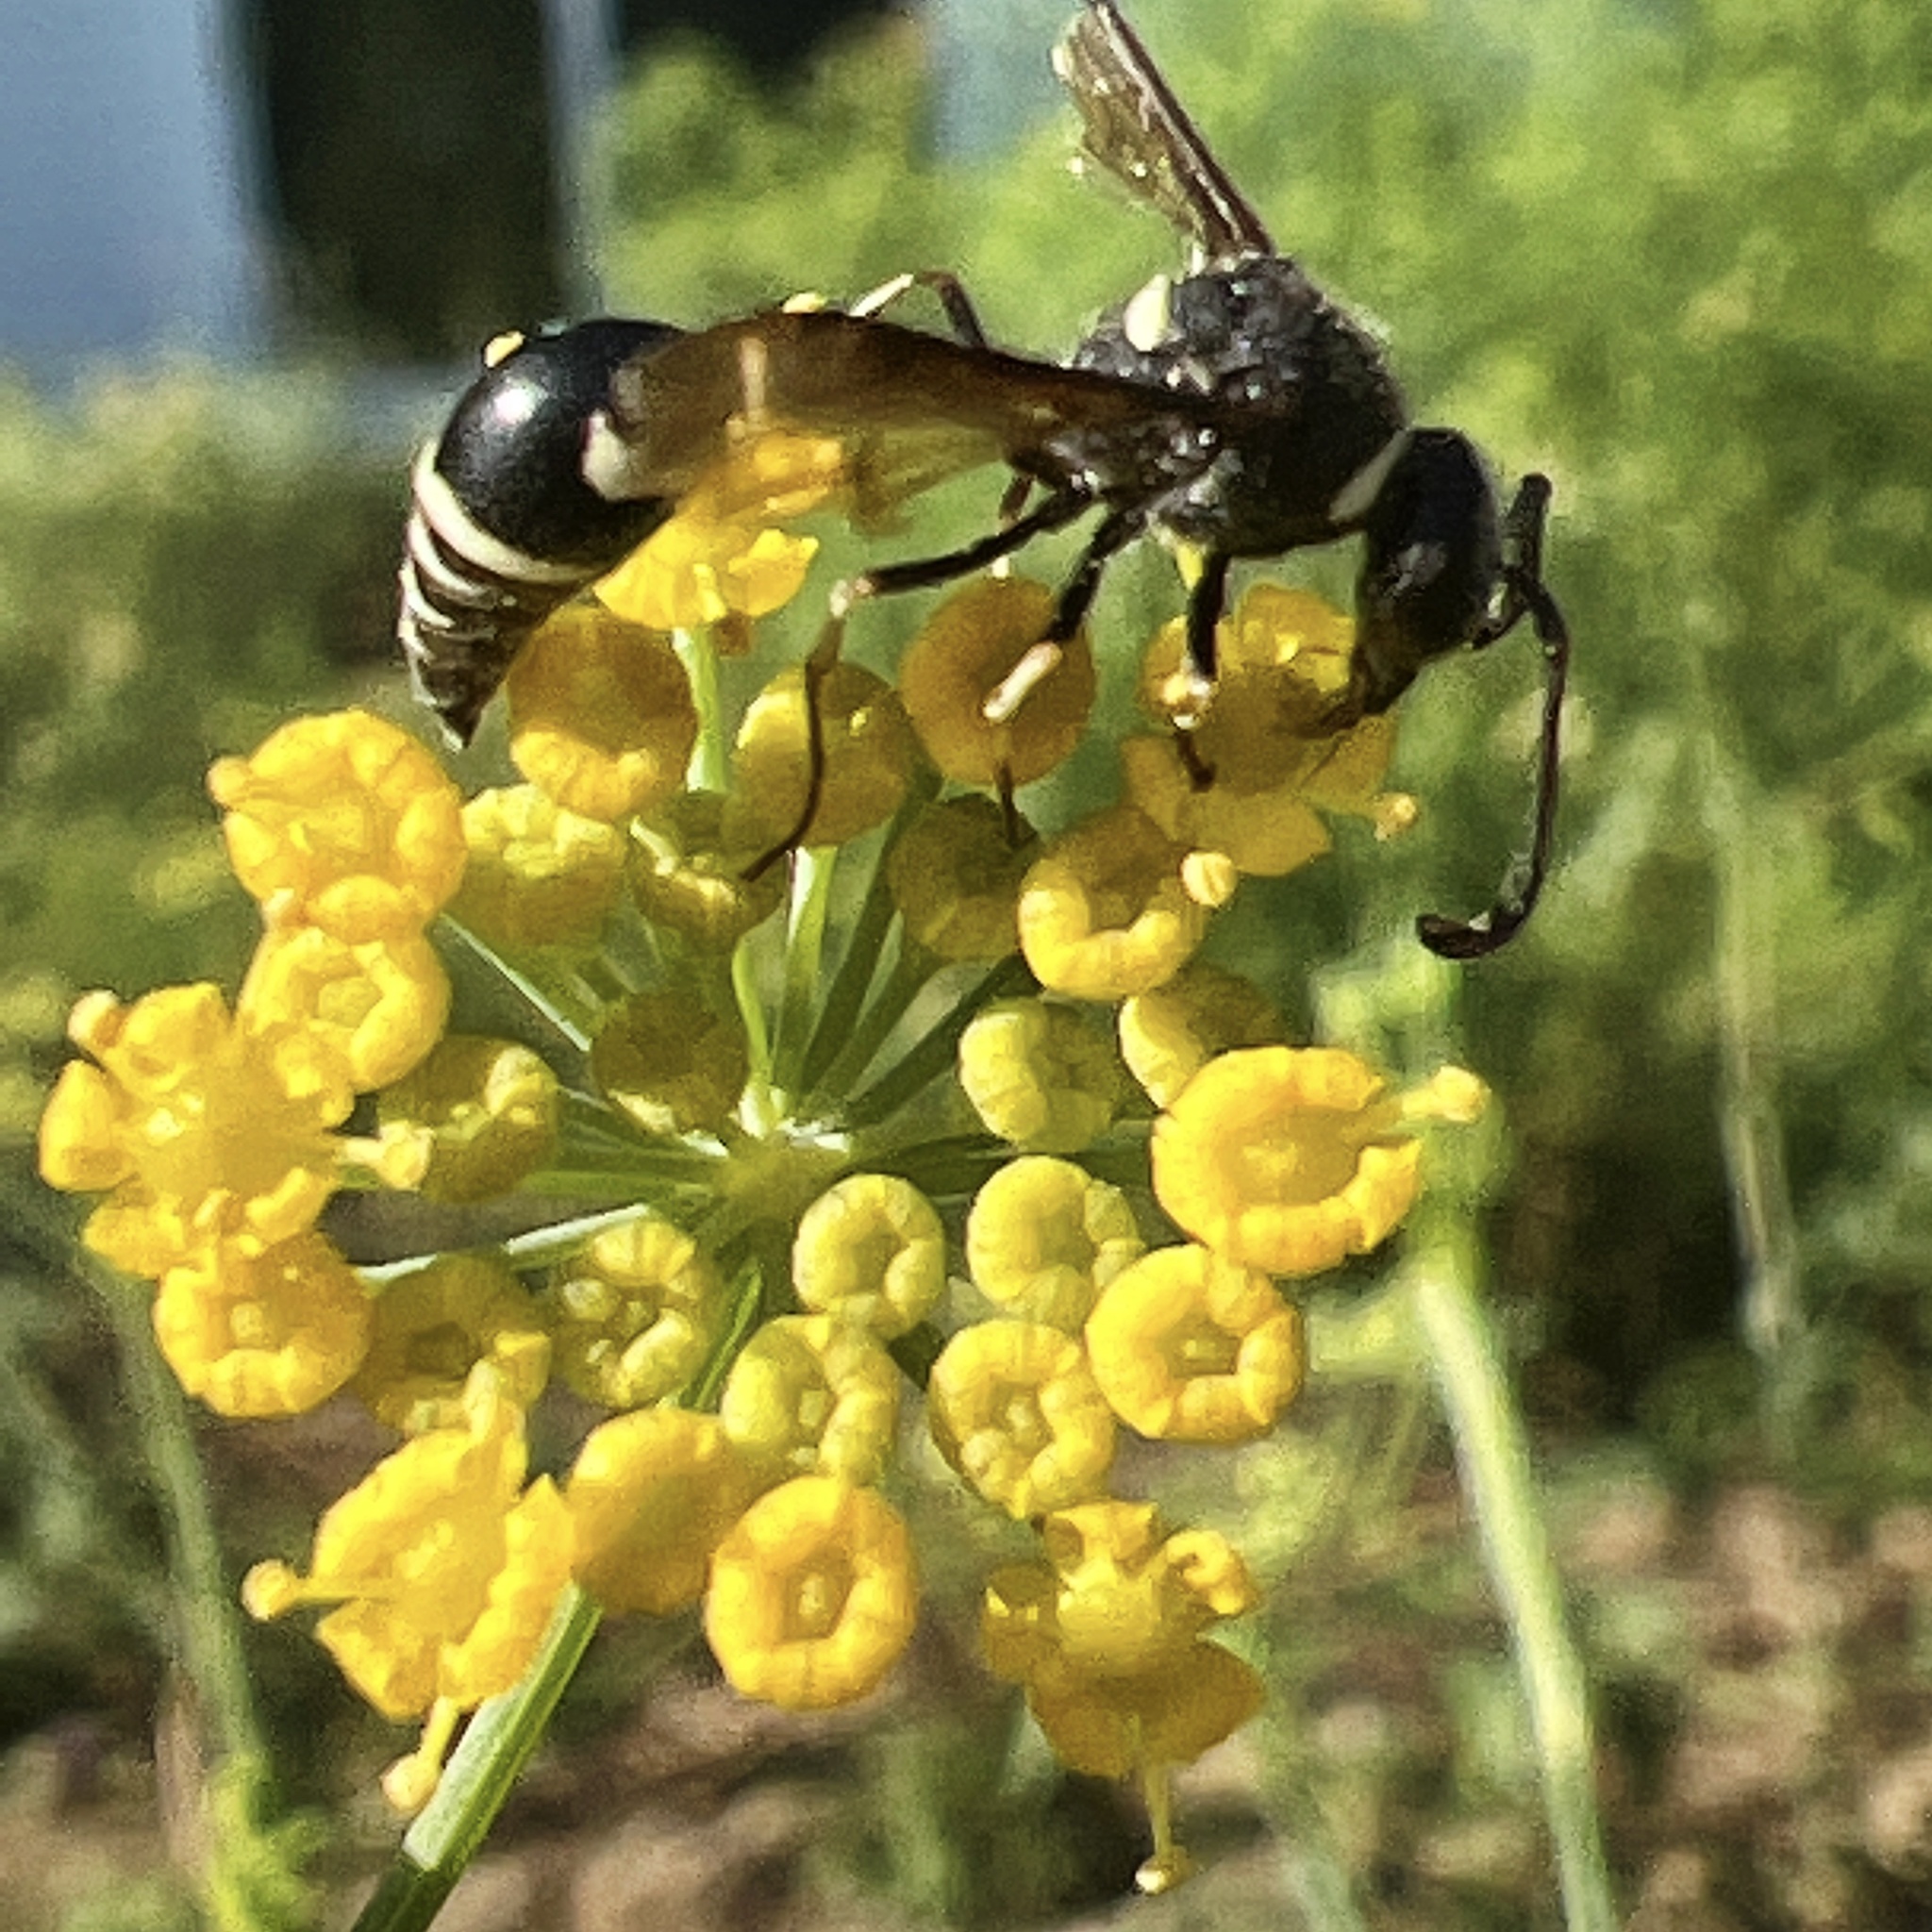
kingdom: Animalia
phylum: Arthropoda
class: Insecta
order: Hymenoptera
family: Vespidae
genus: Eumenes
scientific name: Eumenes fraternus
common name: Fraternal potter wasp
